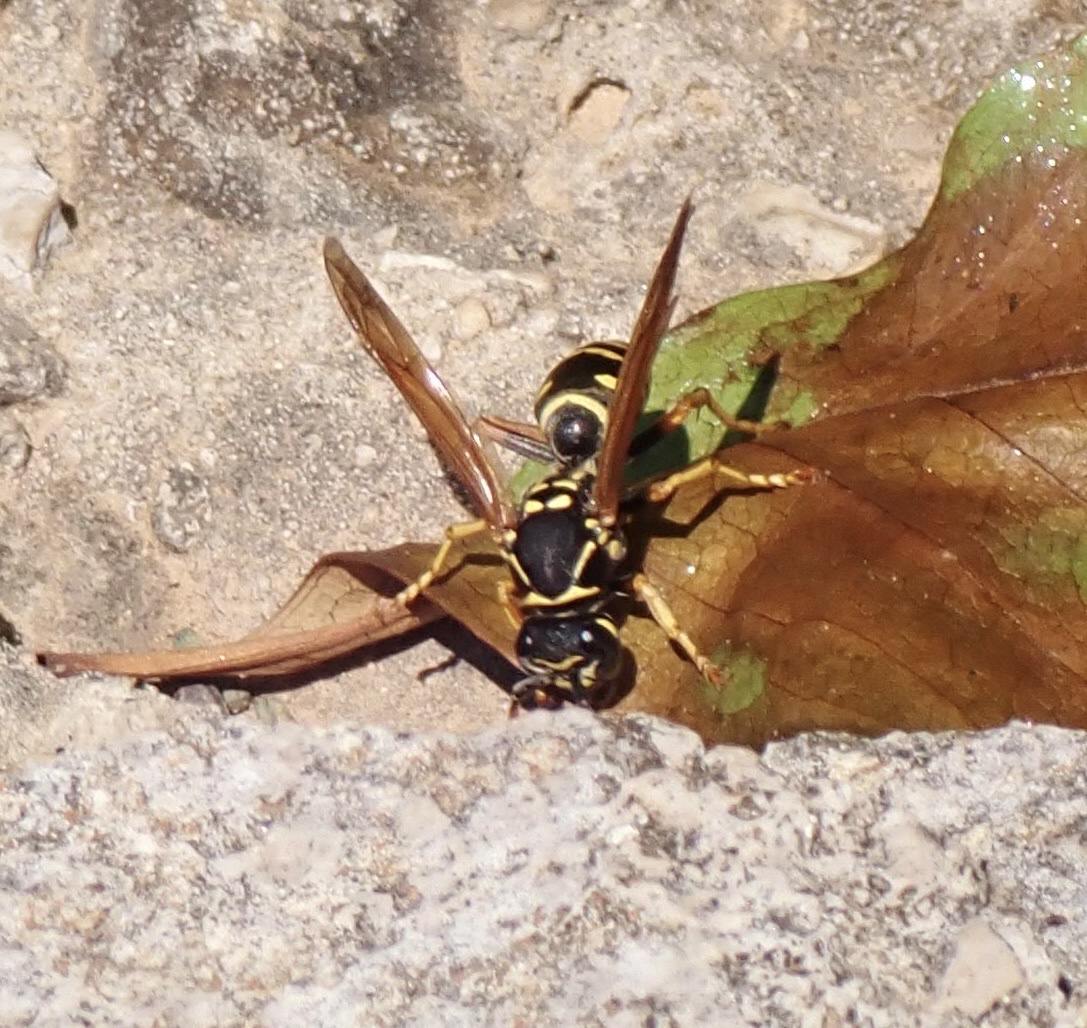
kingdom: Animalia
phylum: Arthropoda
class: Insecta
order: Hymenoptera
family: Eumenidae
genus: Polistes
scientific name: Polistes dominula
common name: Paper wasp
